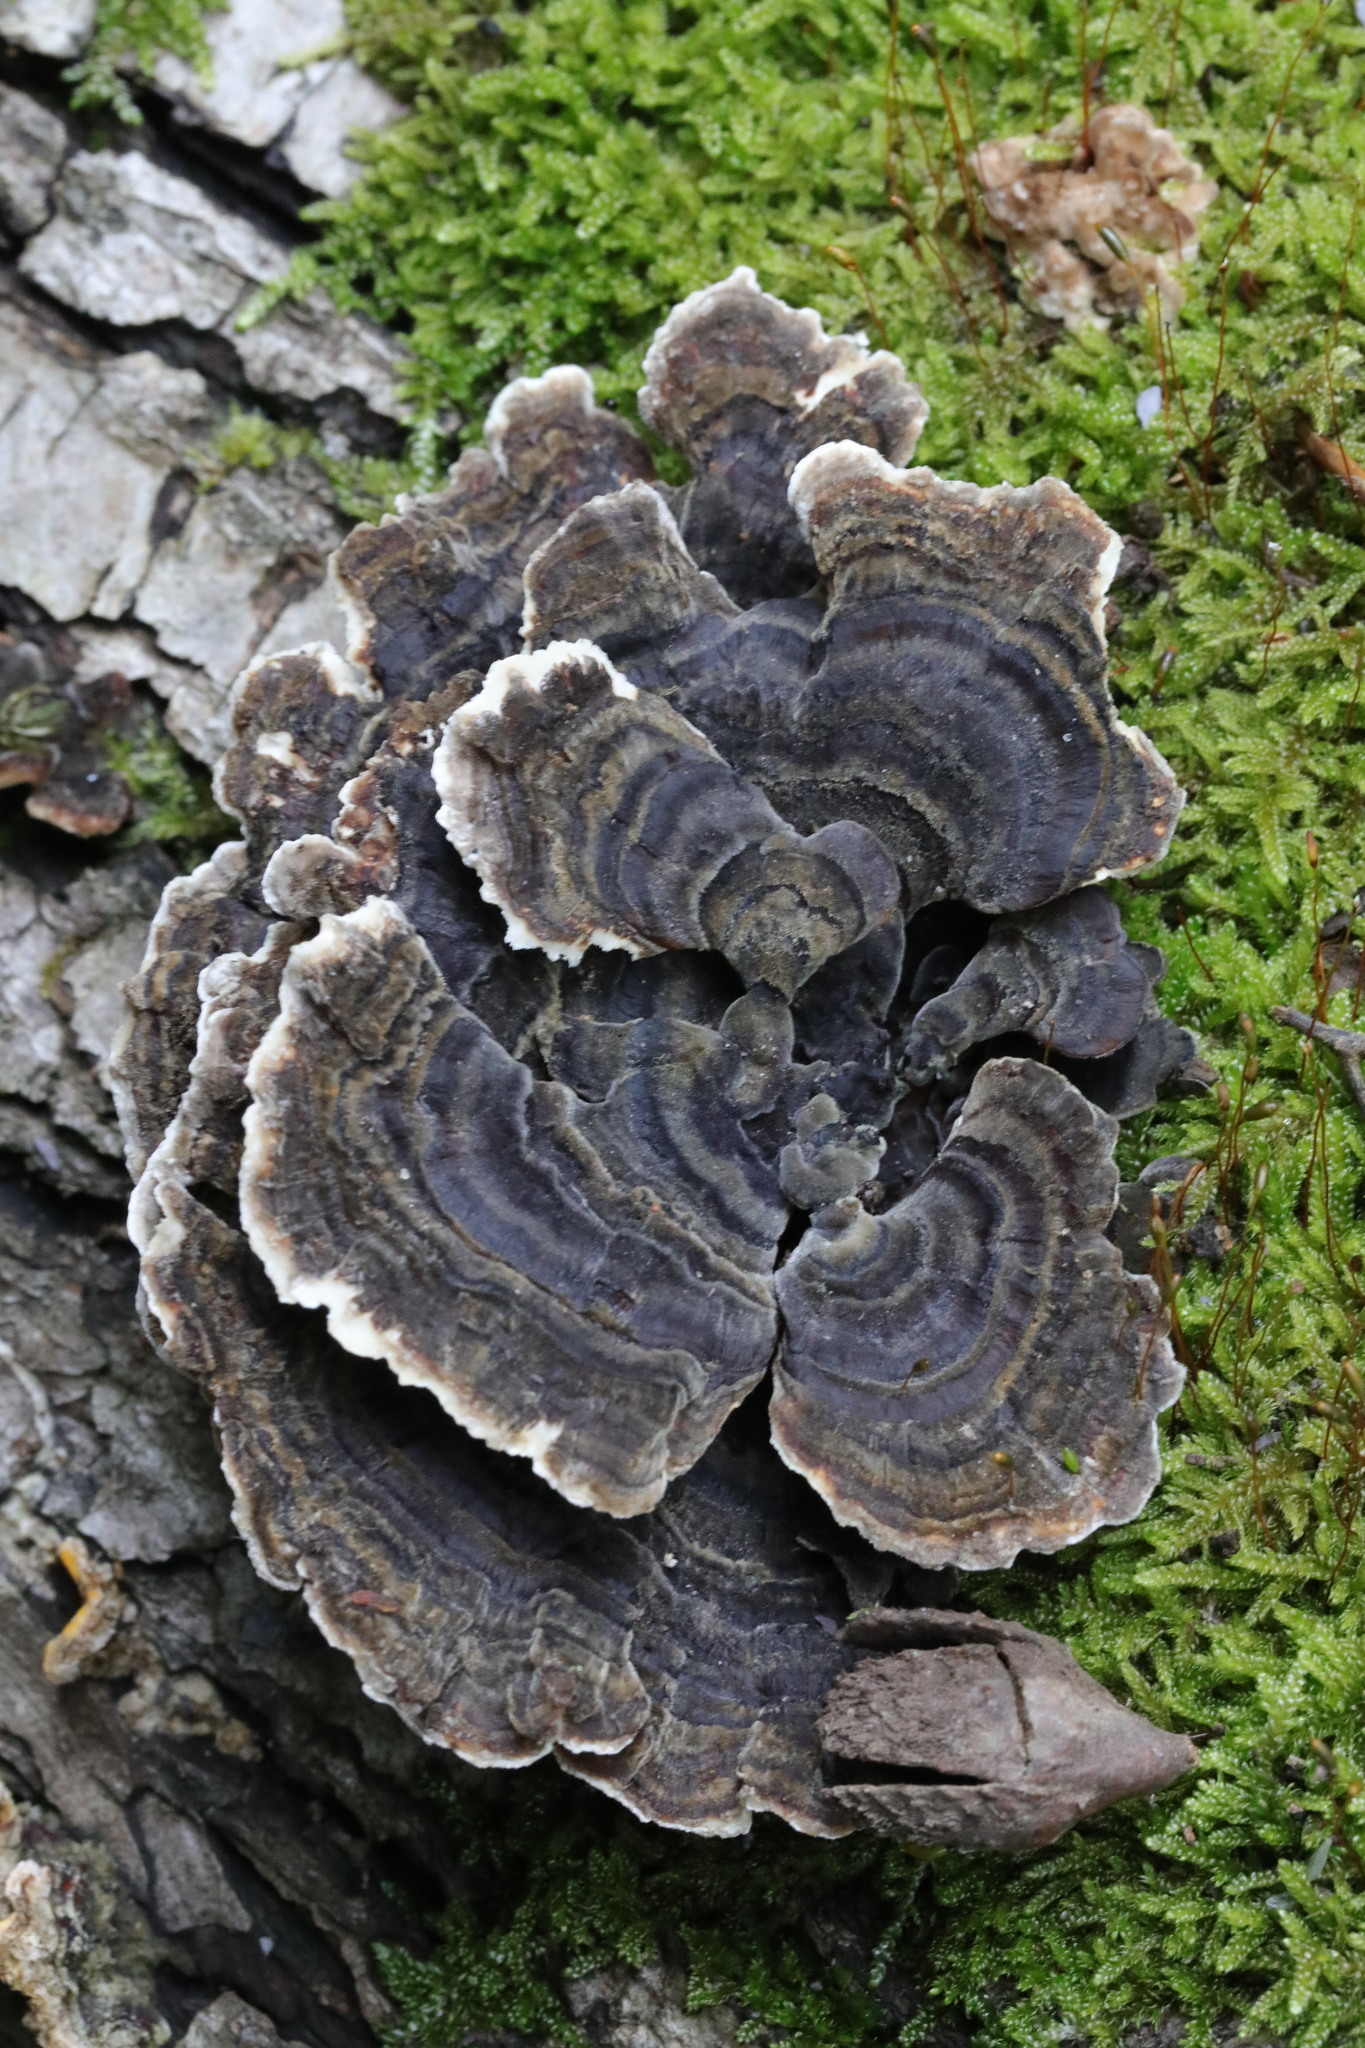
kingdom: Fungi
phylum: Basidiomycota
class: Agaricomycetes
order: Polyporales
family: Polyporaceae
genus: Trametes
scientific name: Trametes versicolor
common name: Turkeytail
